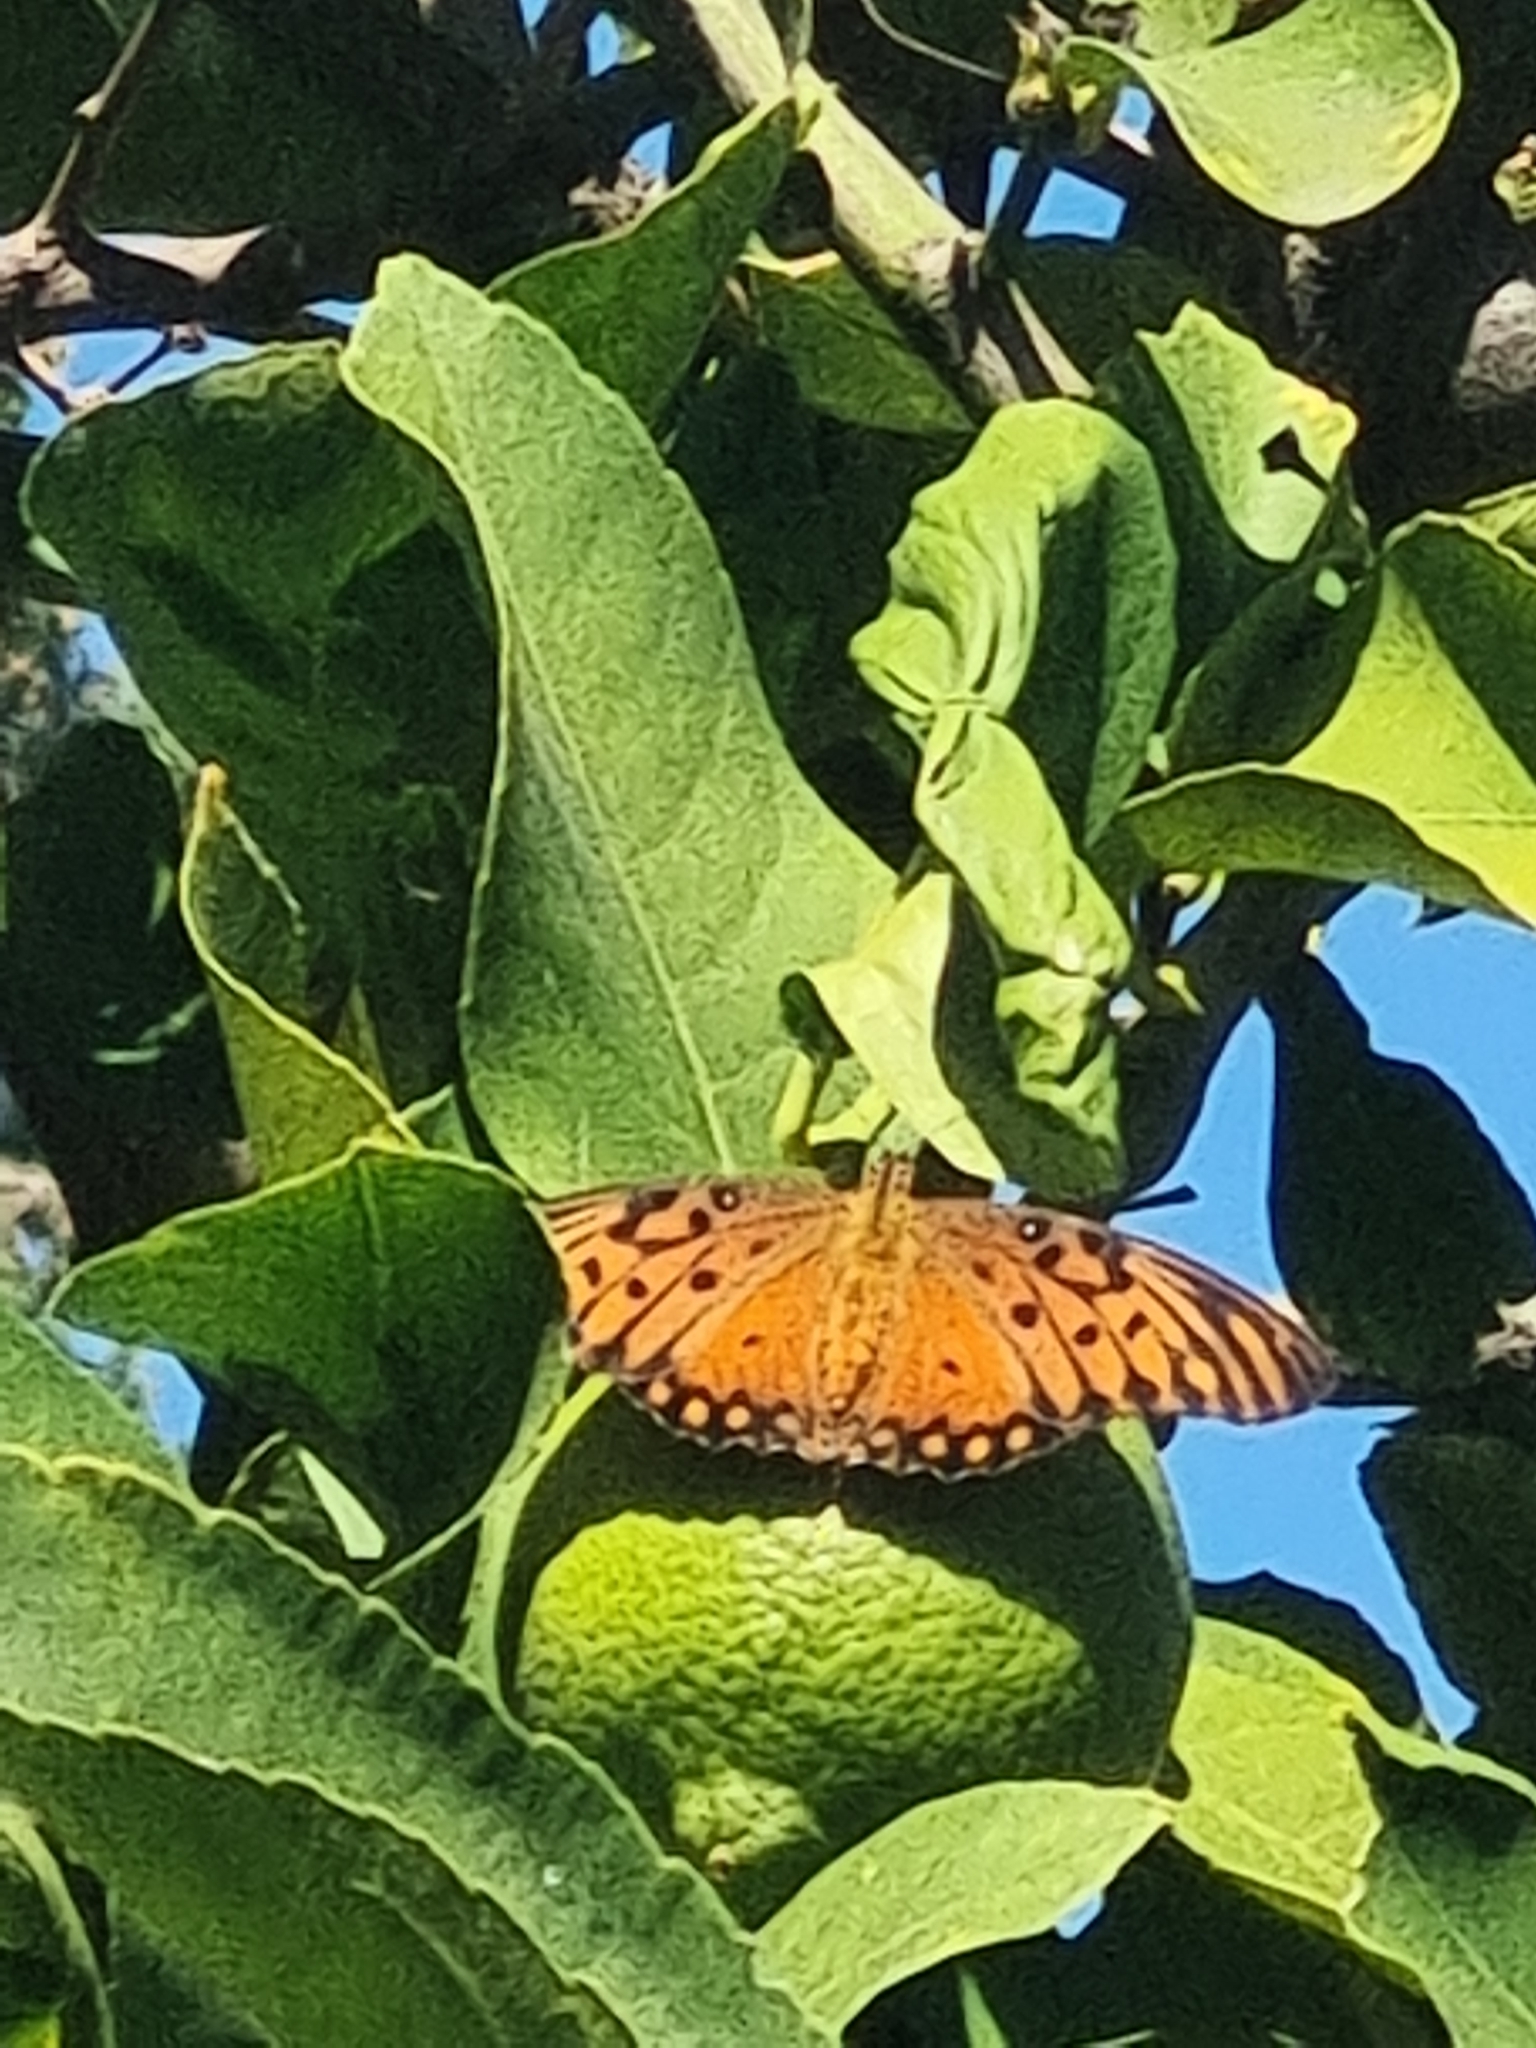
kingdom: Animalia
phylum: Arthropoda
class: Insecta
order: Lepidoptera
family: Nymphalidae
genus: Dione
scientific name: Dione vanillae
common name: Gulf fritillary
